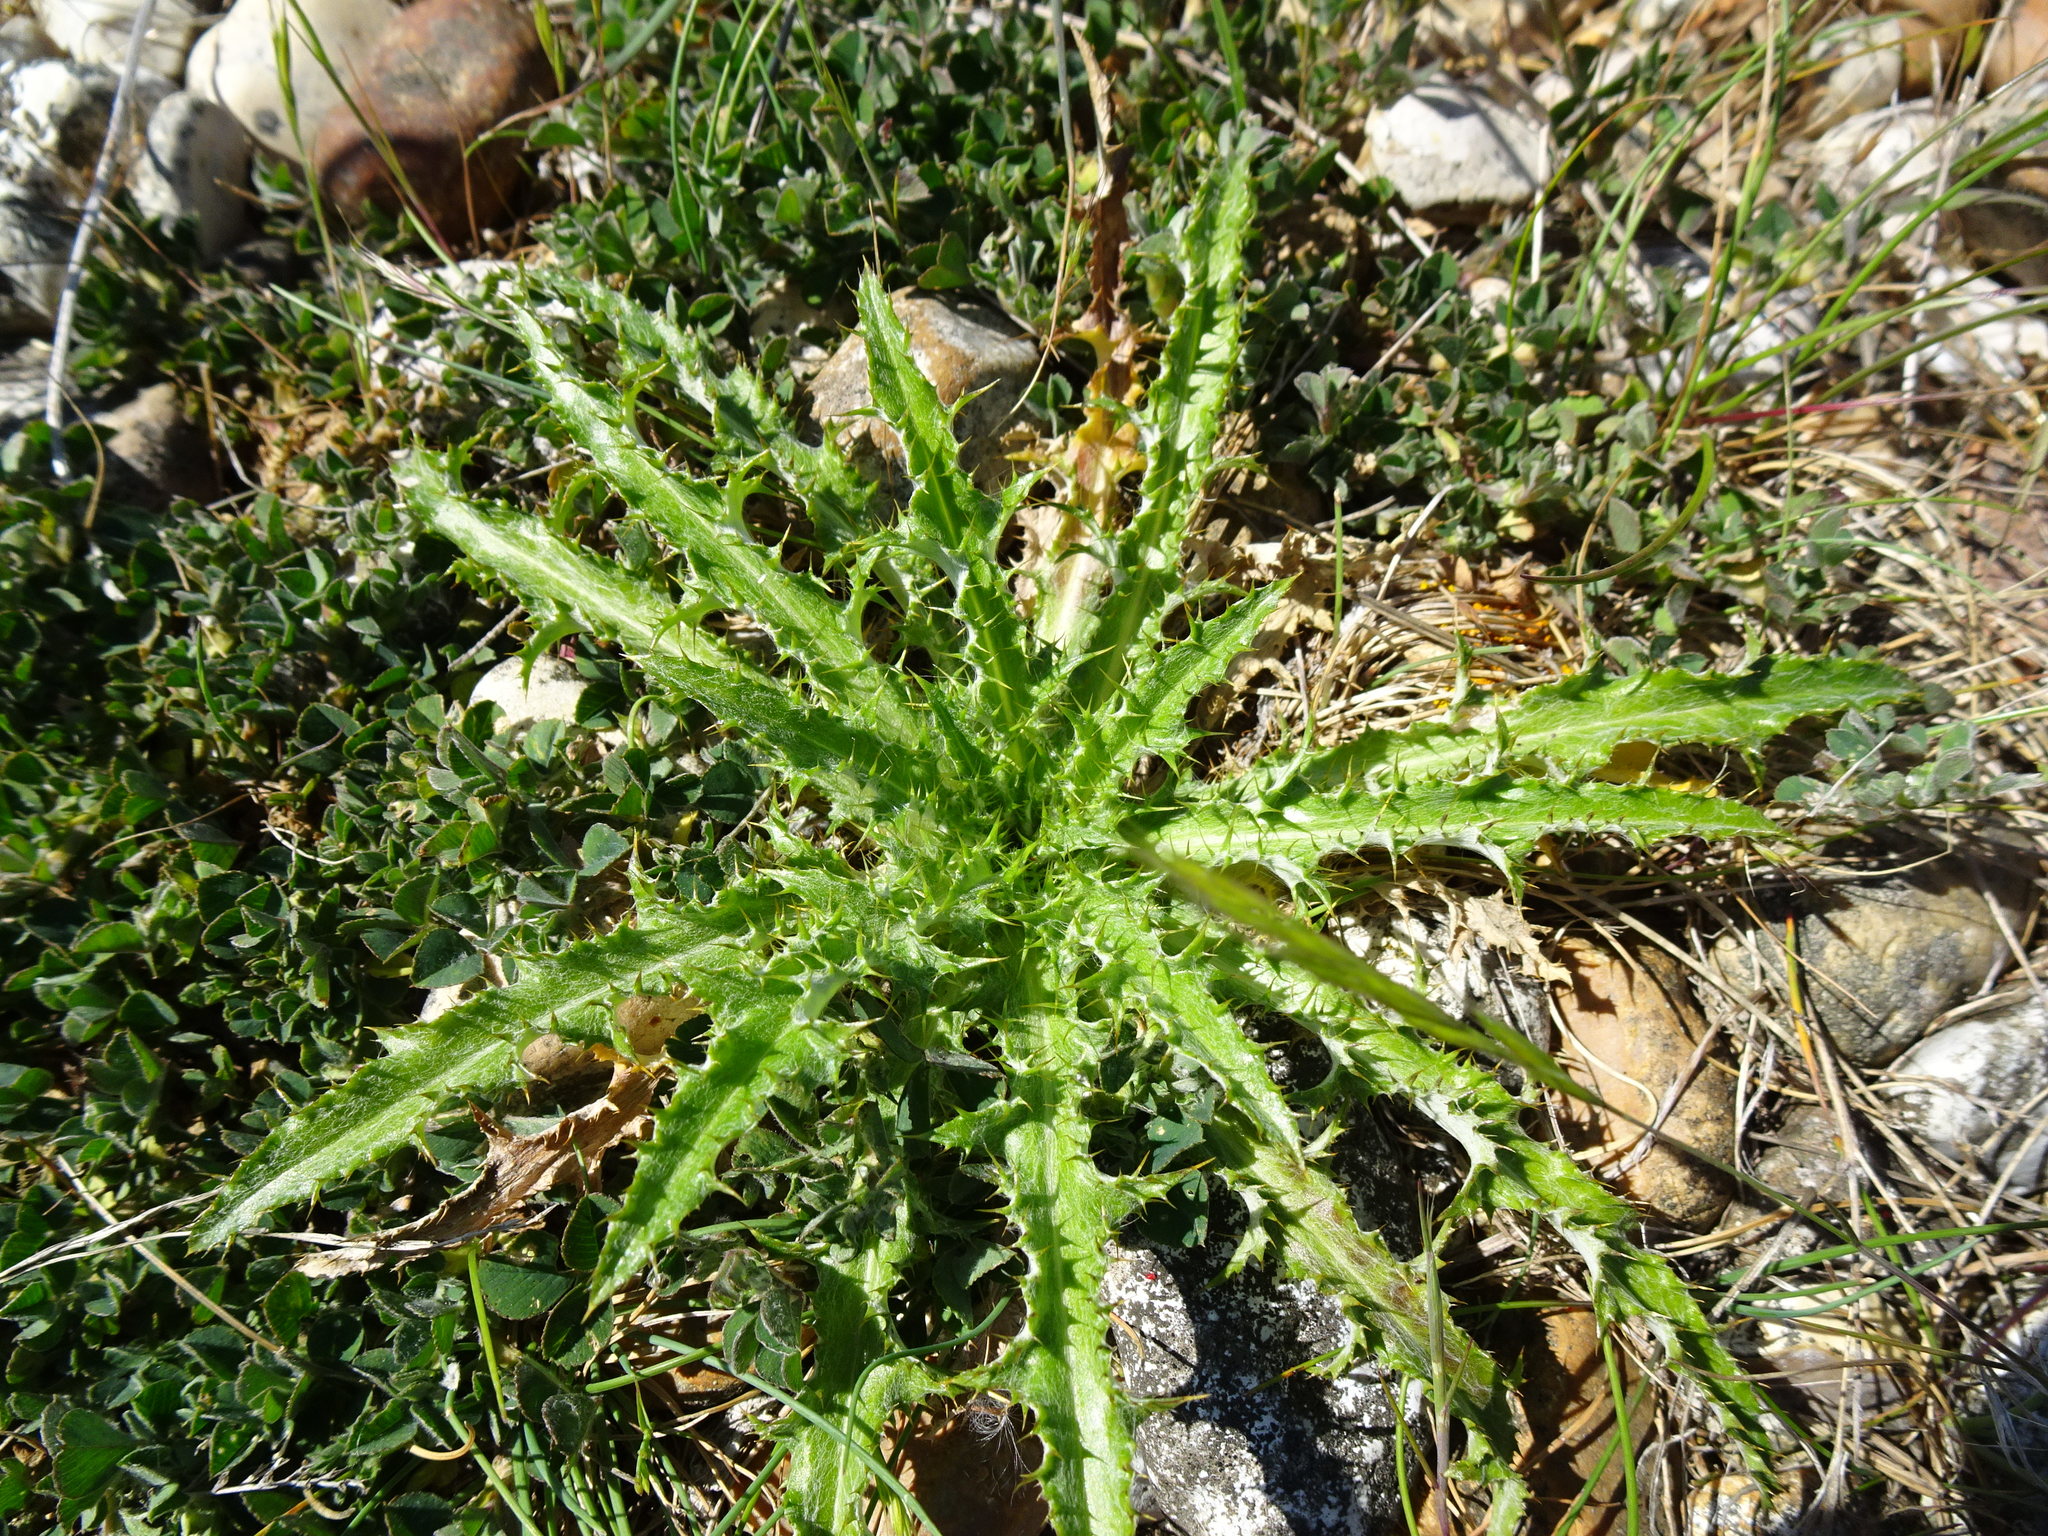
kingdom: Plantae
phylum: Tracheophyta
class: Magnoliopsida
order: Asterales
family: Asteraceae
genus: Carlina
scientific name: Carlina vulgaris
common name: Carline thistle
